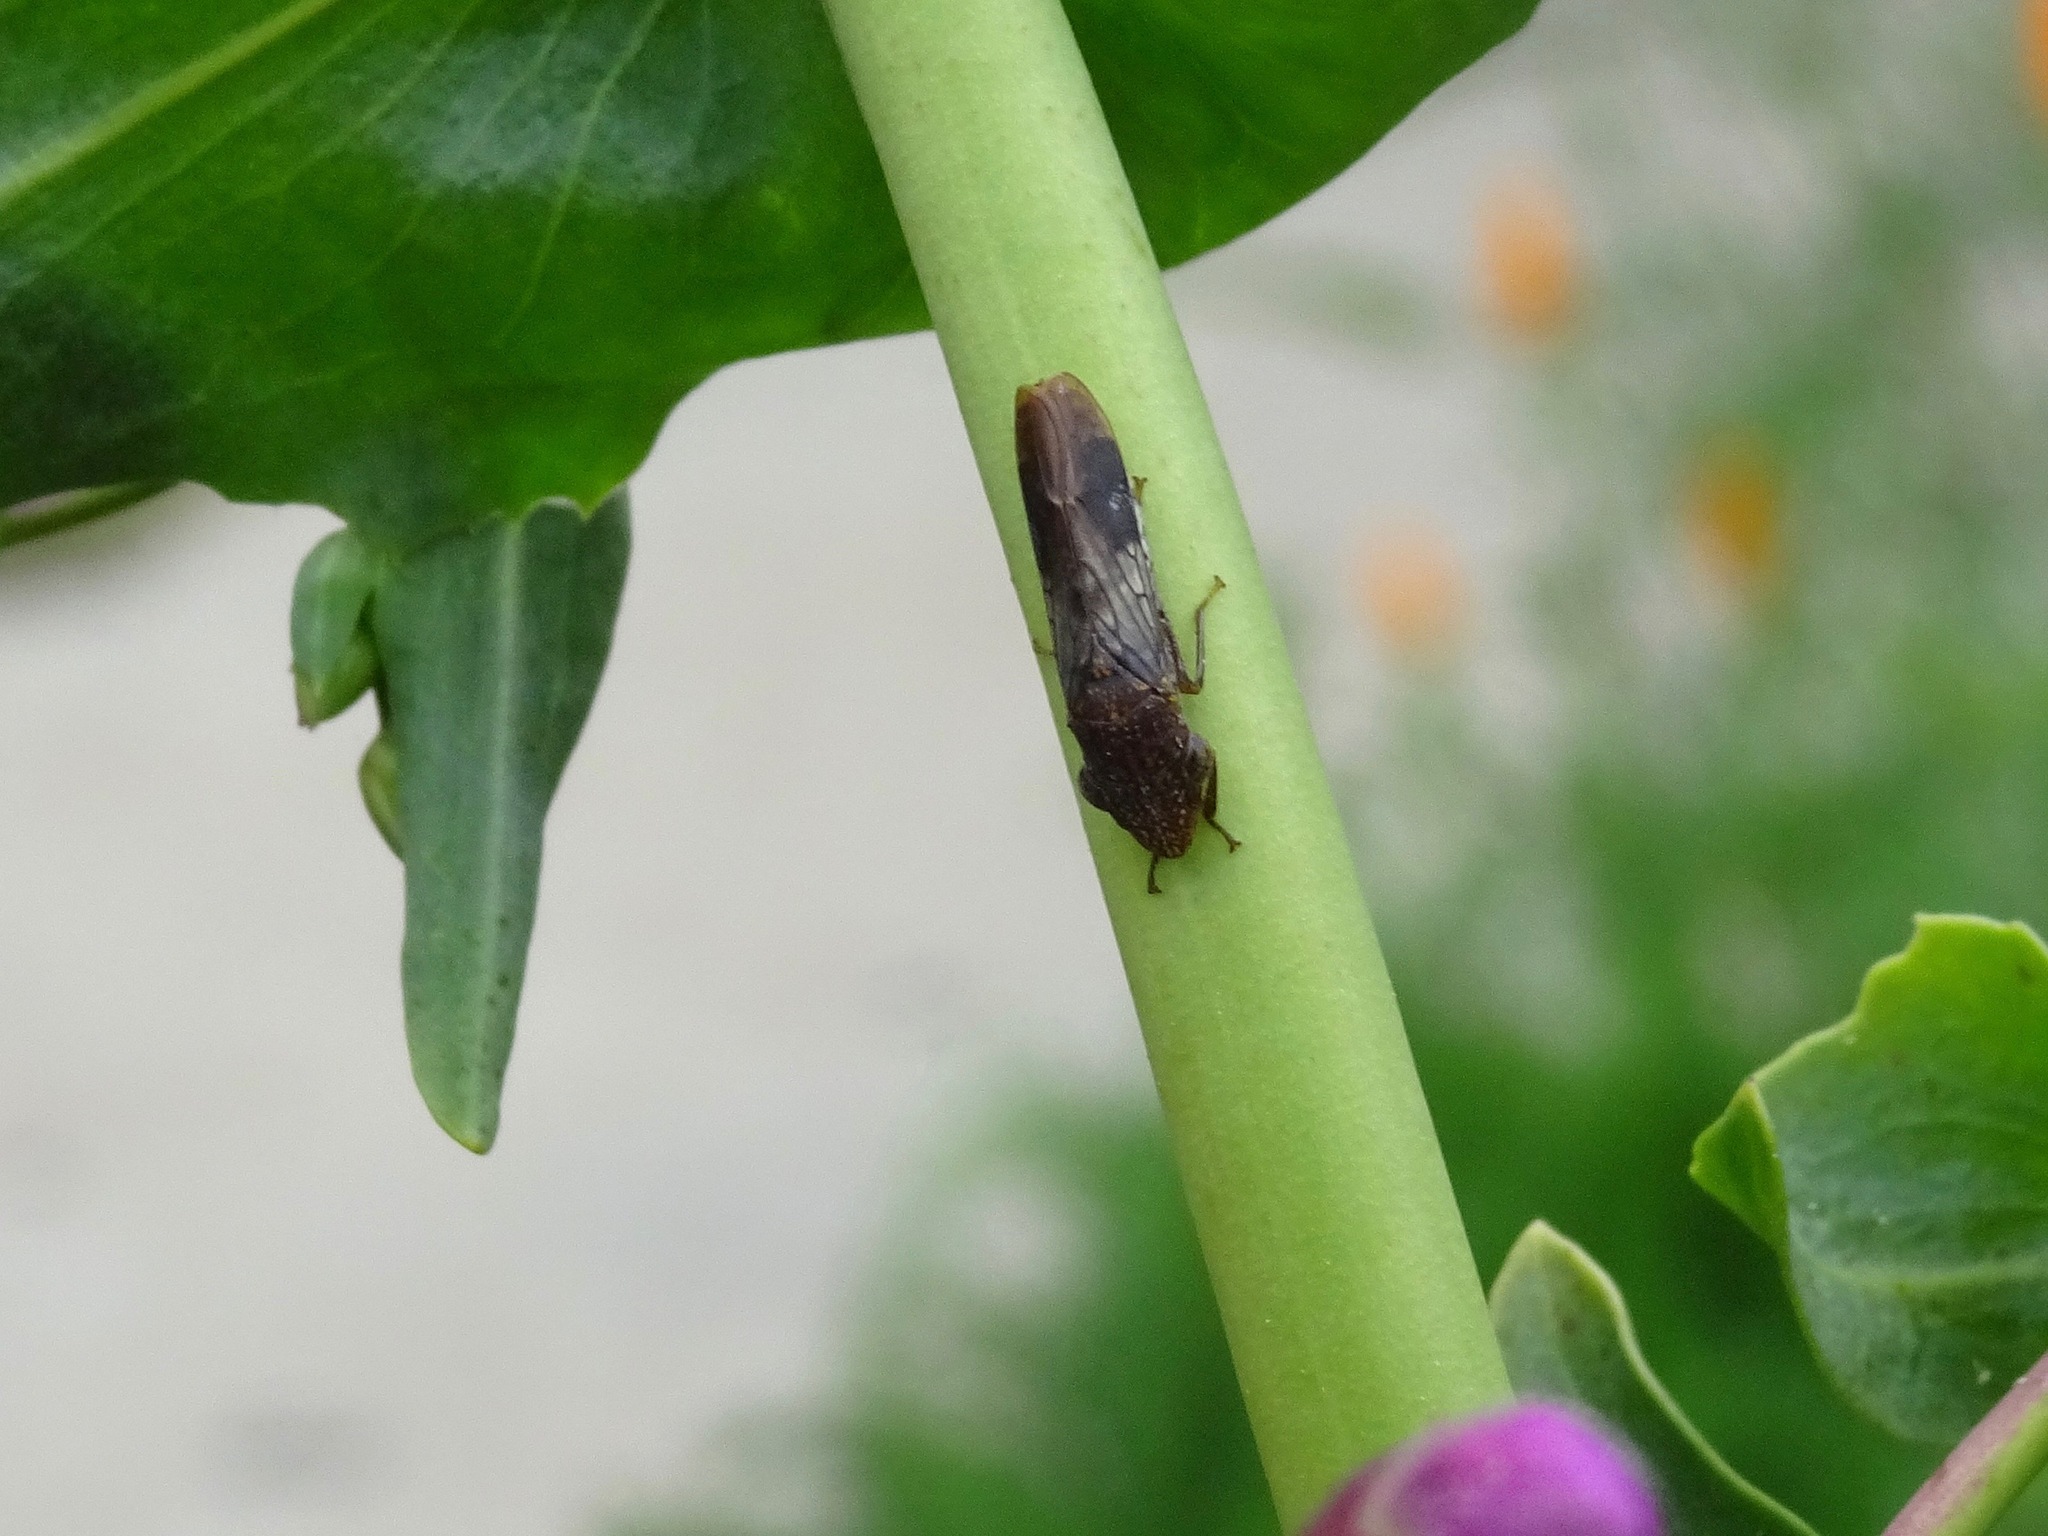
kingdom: Animalia
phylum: Arthropoda
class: Insecta
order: Hemiptera
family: Cicadellidae
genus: Homalodisca
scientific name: Homalodisca vitripennis
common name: Glassy-winged sharpshooter
